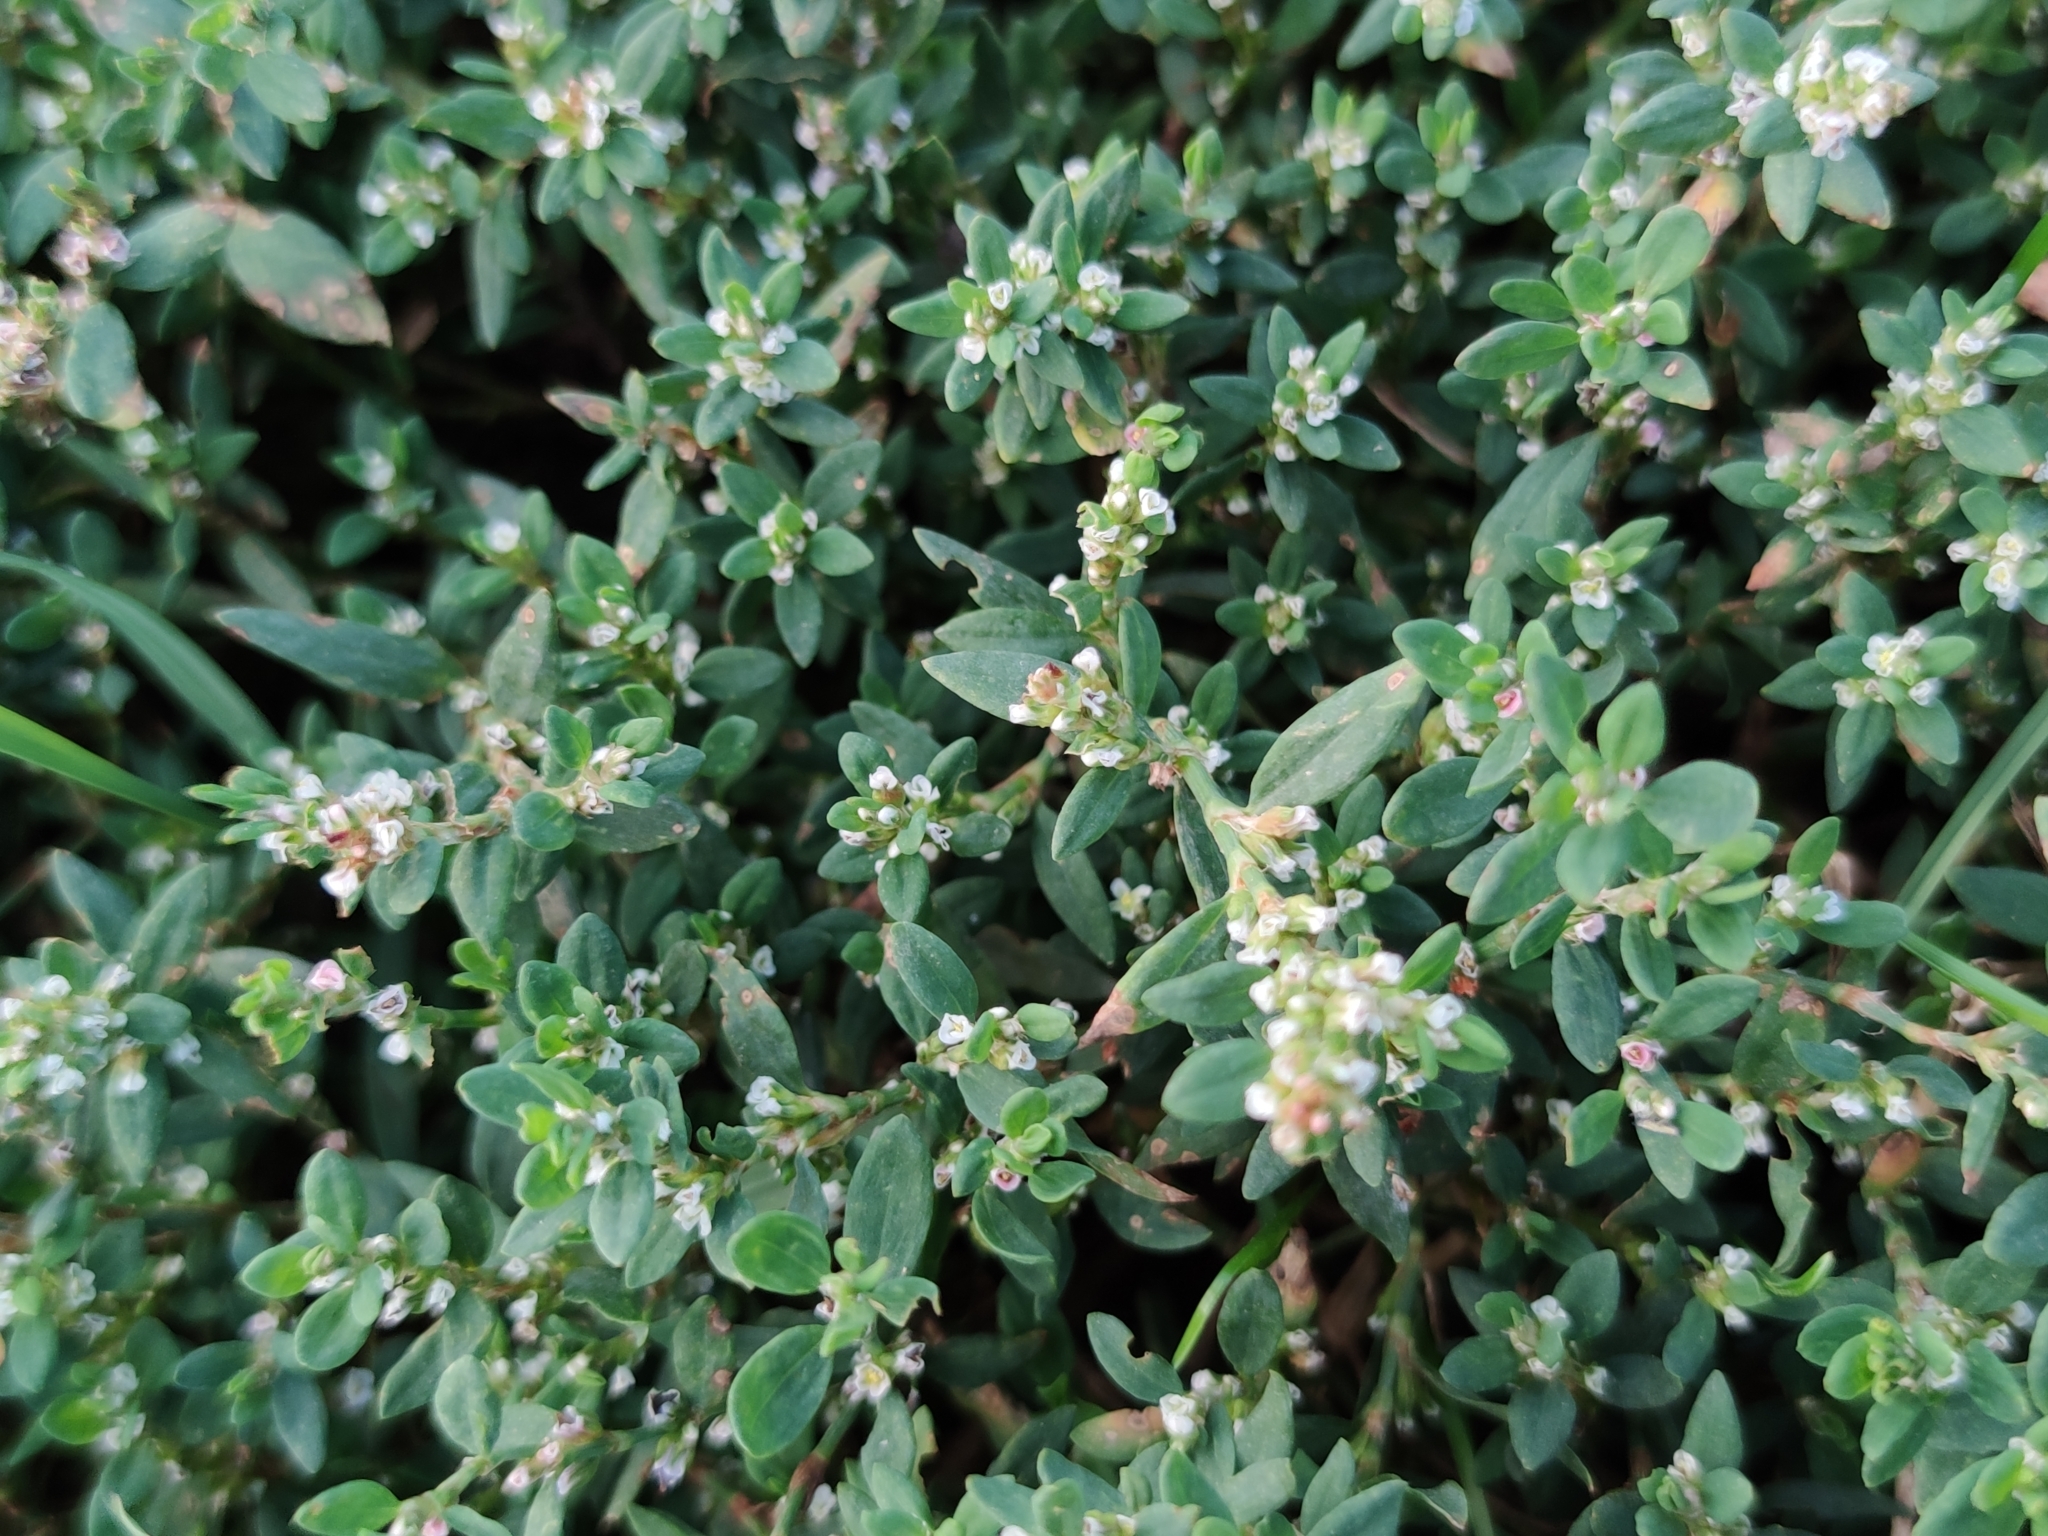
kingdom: Plantae
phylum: Tracheophyta
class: Magnoliopsida
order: Caryophyllales
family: Polygonaceae
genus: Polygonum
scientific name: Polygonum arenastrum
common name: Equal-leaved knotgrass
